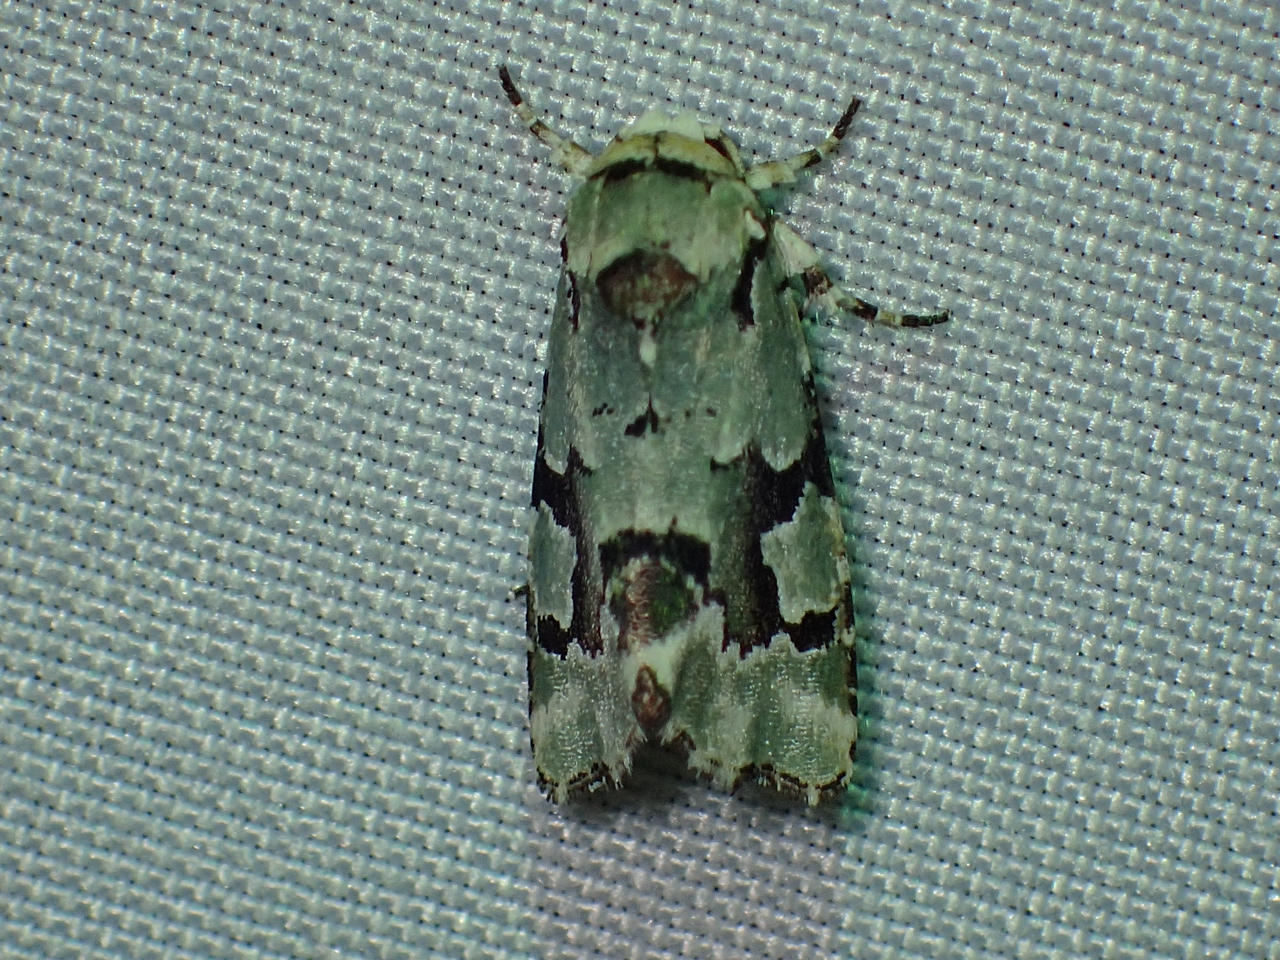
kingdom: Animalia
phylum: Arthropoda
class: Insecta
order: Lepidoptera
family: Noctuidae
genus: Emarginea
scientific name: Emarginea percara
